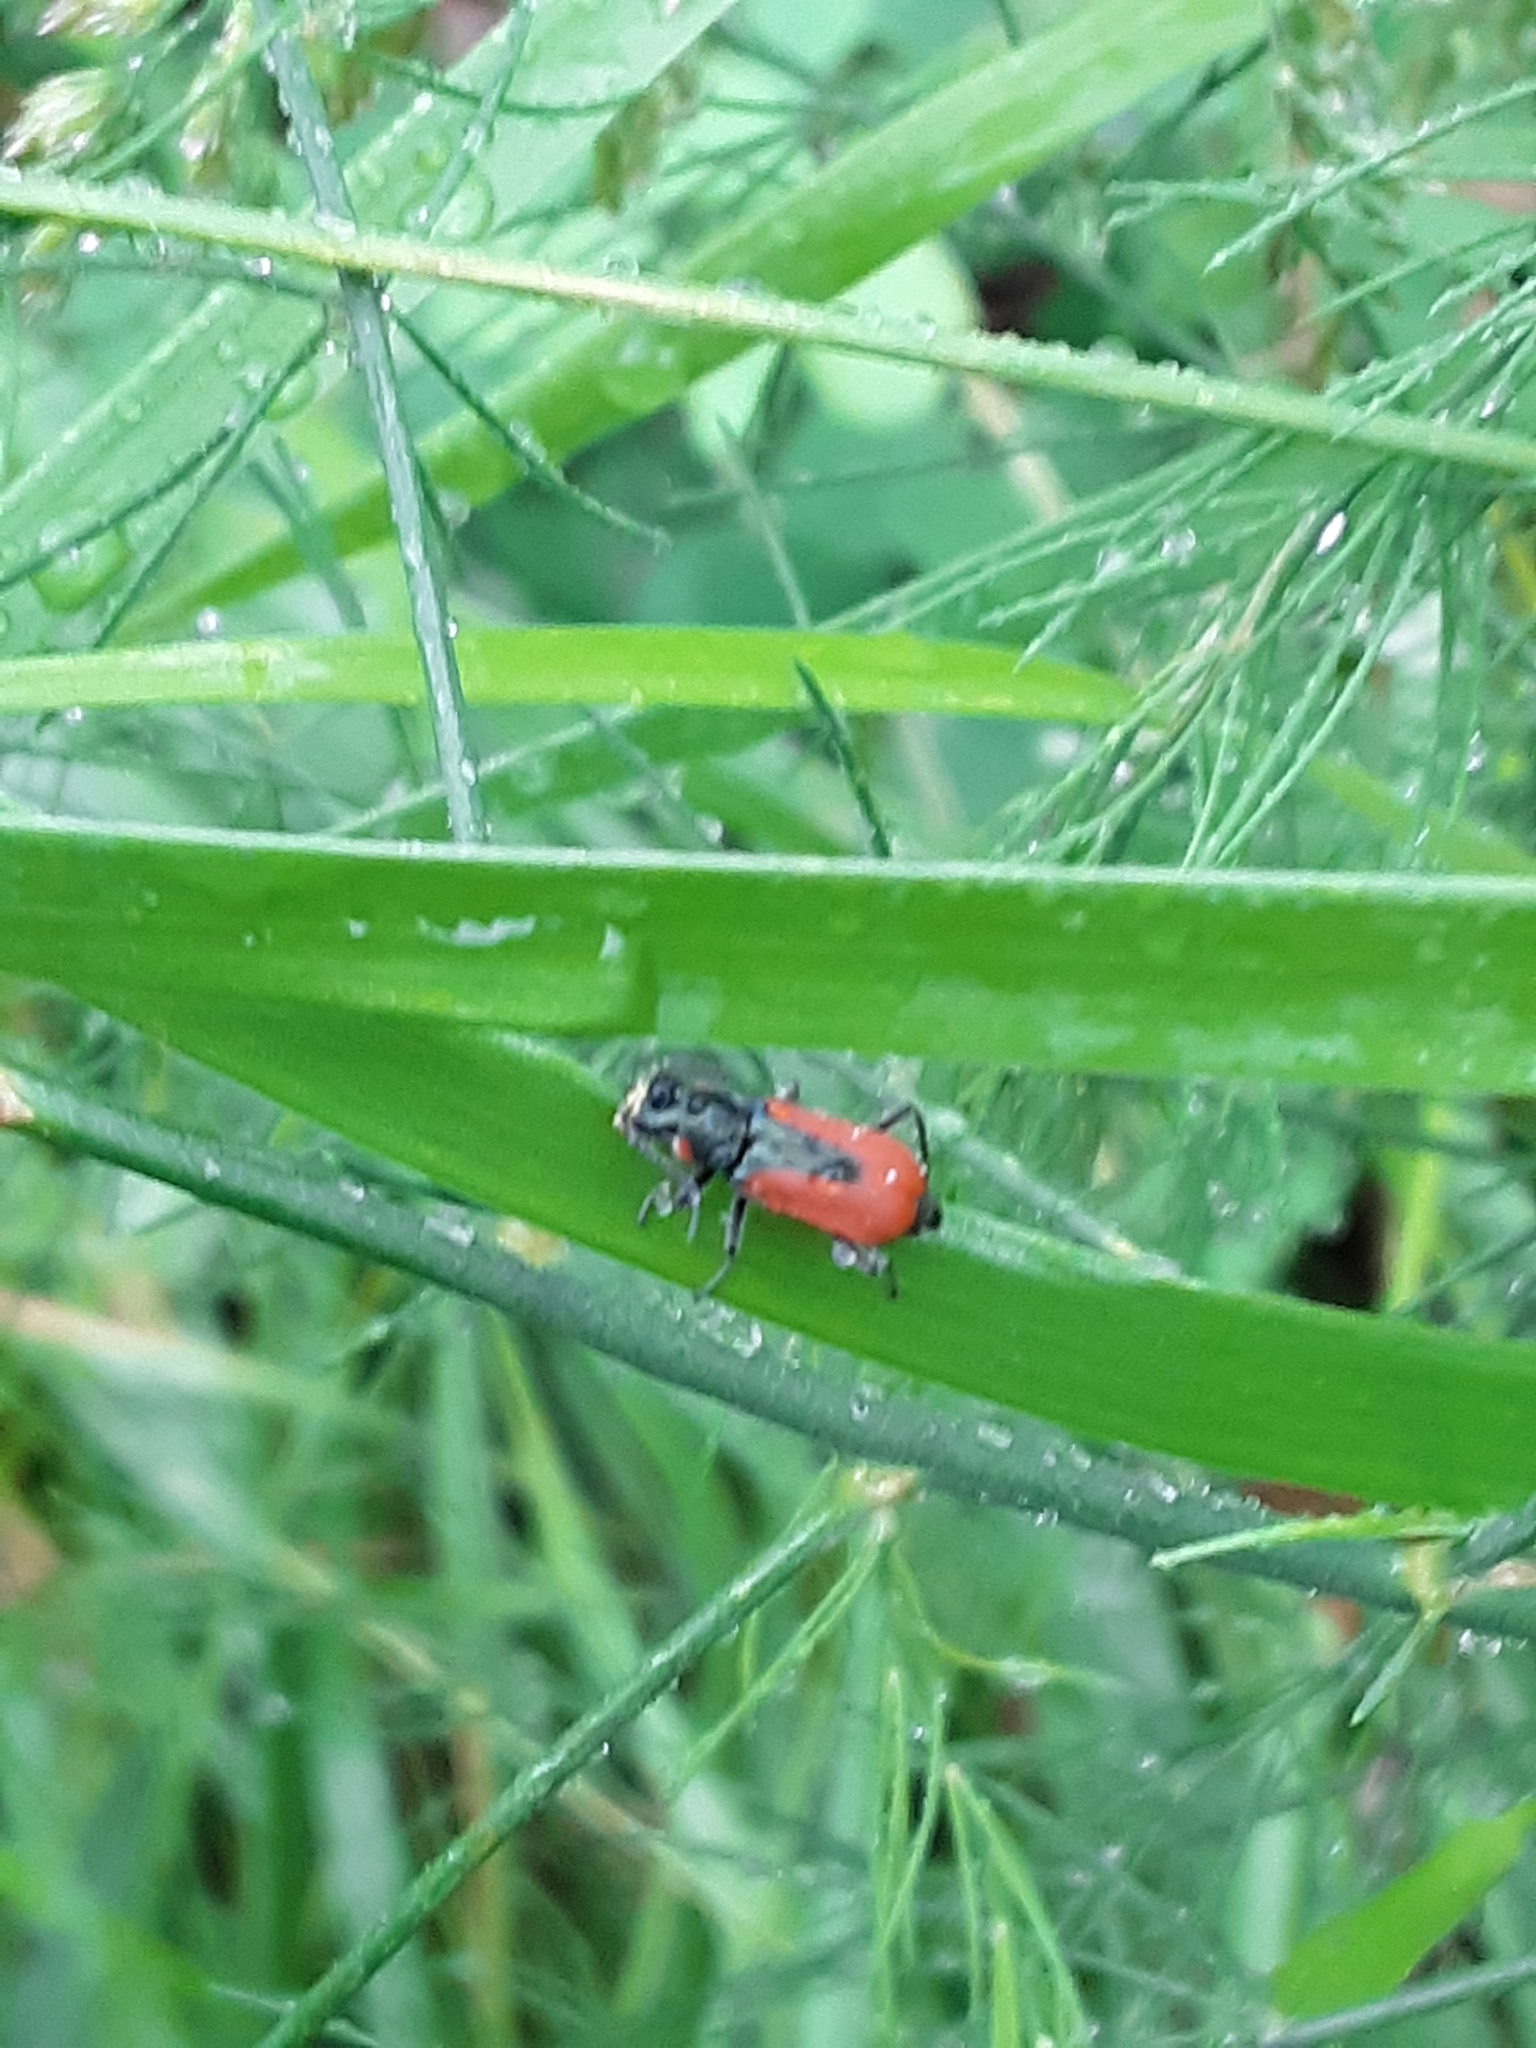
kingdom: Animalia
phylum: Arthropoda
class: Insecta
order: Coleoptera
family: Melyridae
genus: Malachius
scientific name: Malachius aeneus
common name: Scarlet malachite beetle
